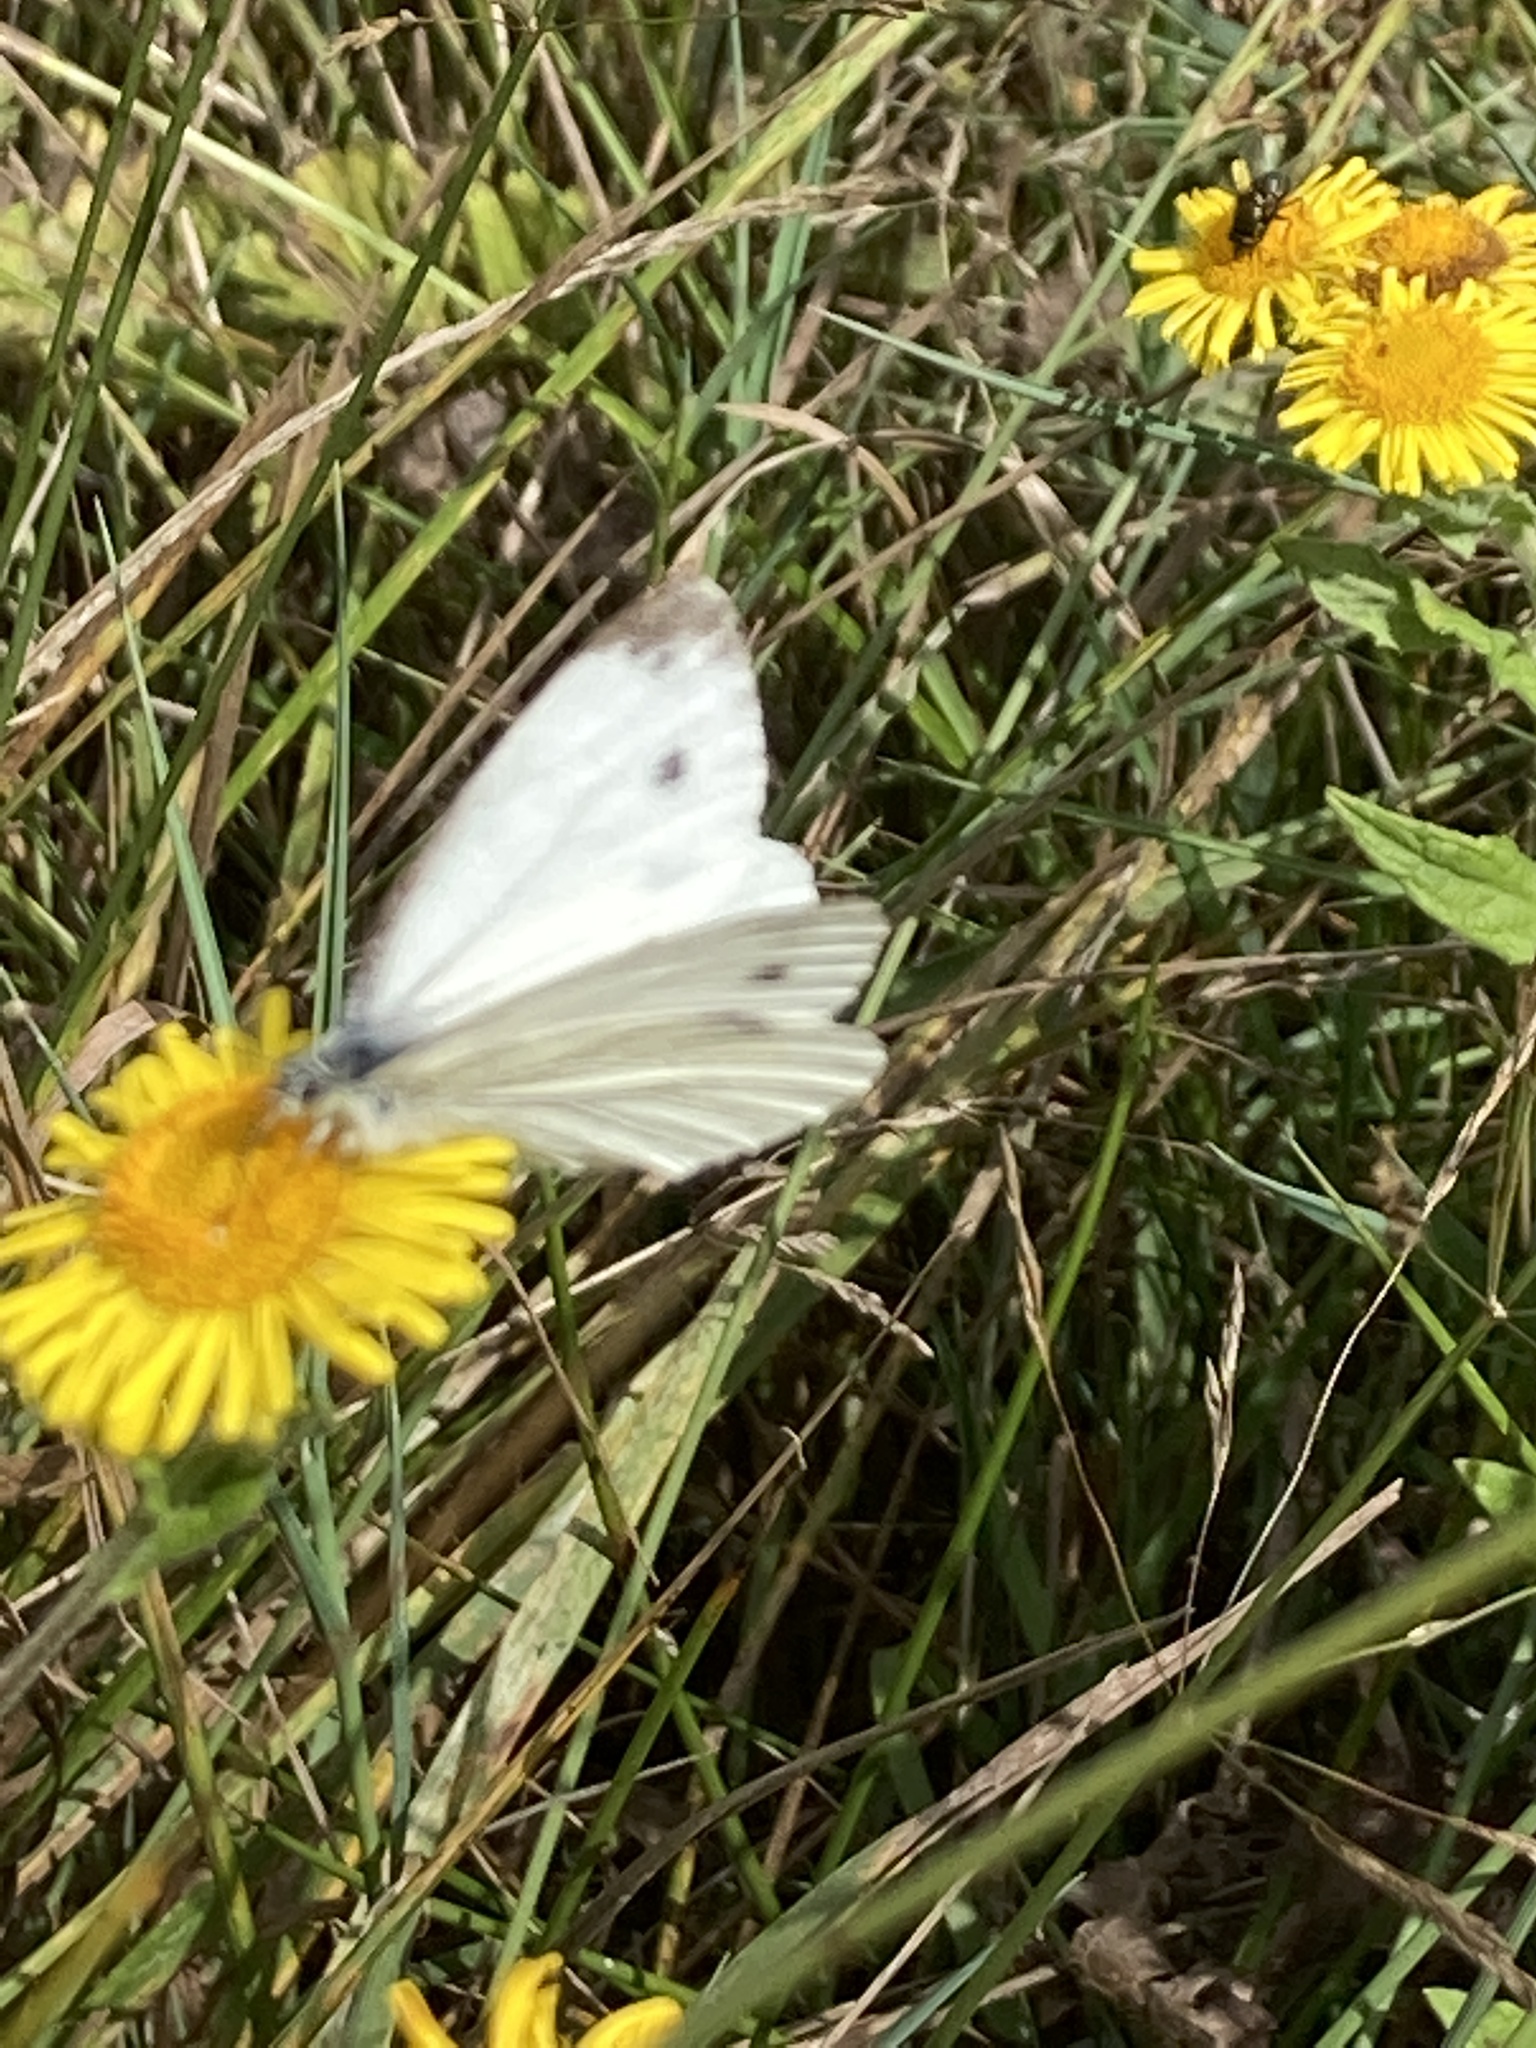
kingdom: Animalia
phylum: Arthropoda
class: Insecta
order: Lepidoptera
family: Pieridae
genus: Pieris
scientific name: Pieris napi
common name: Green-veined white
